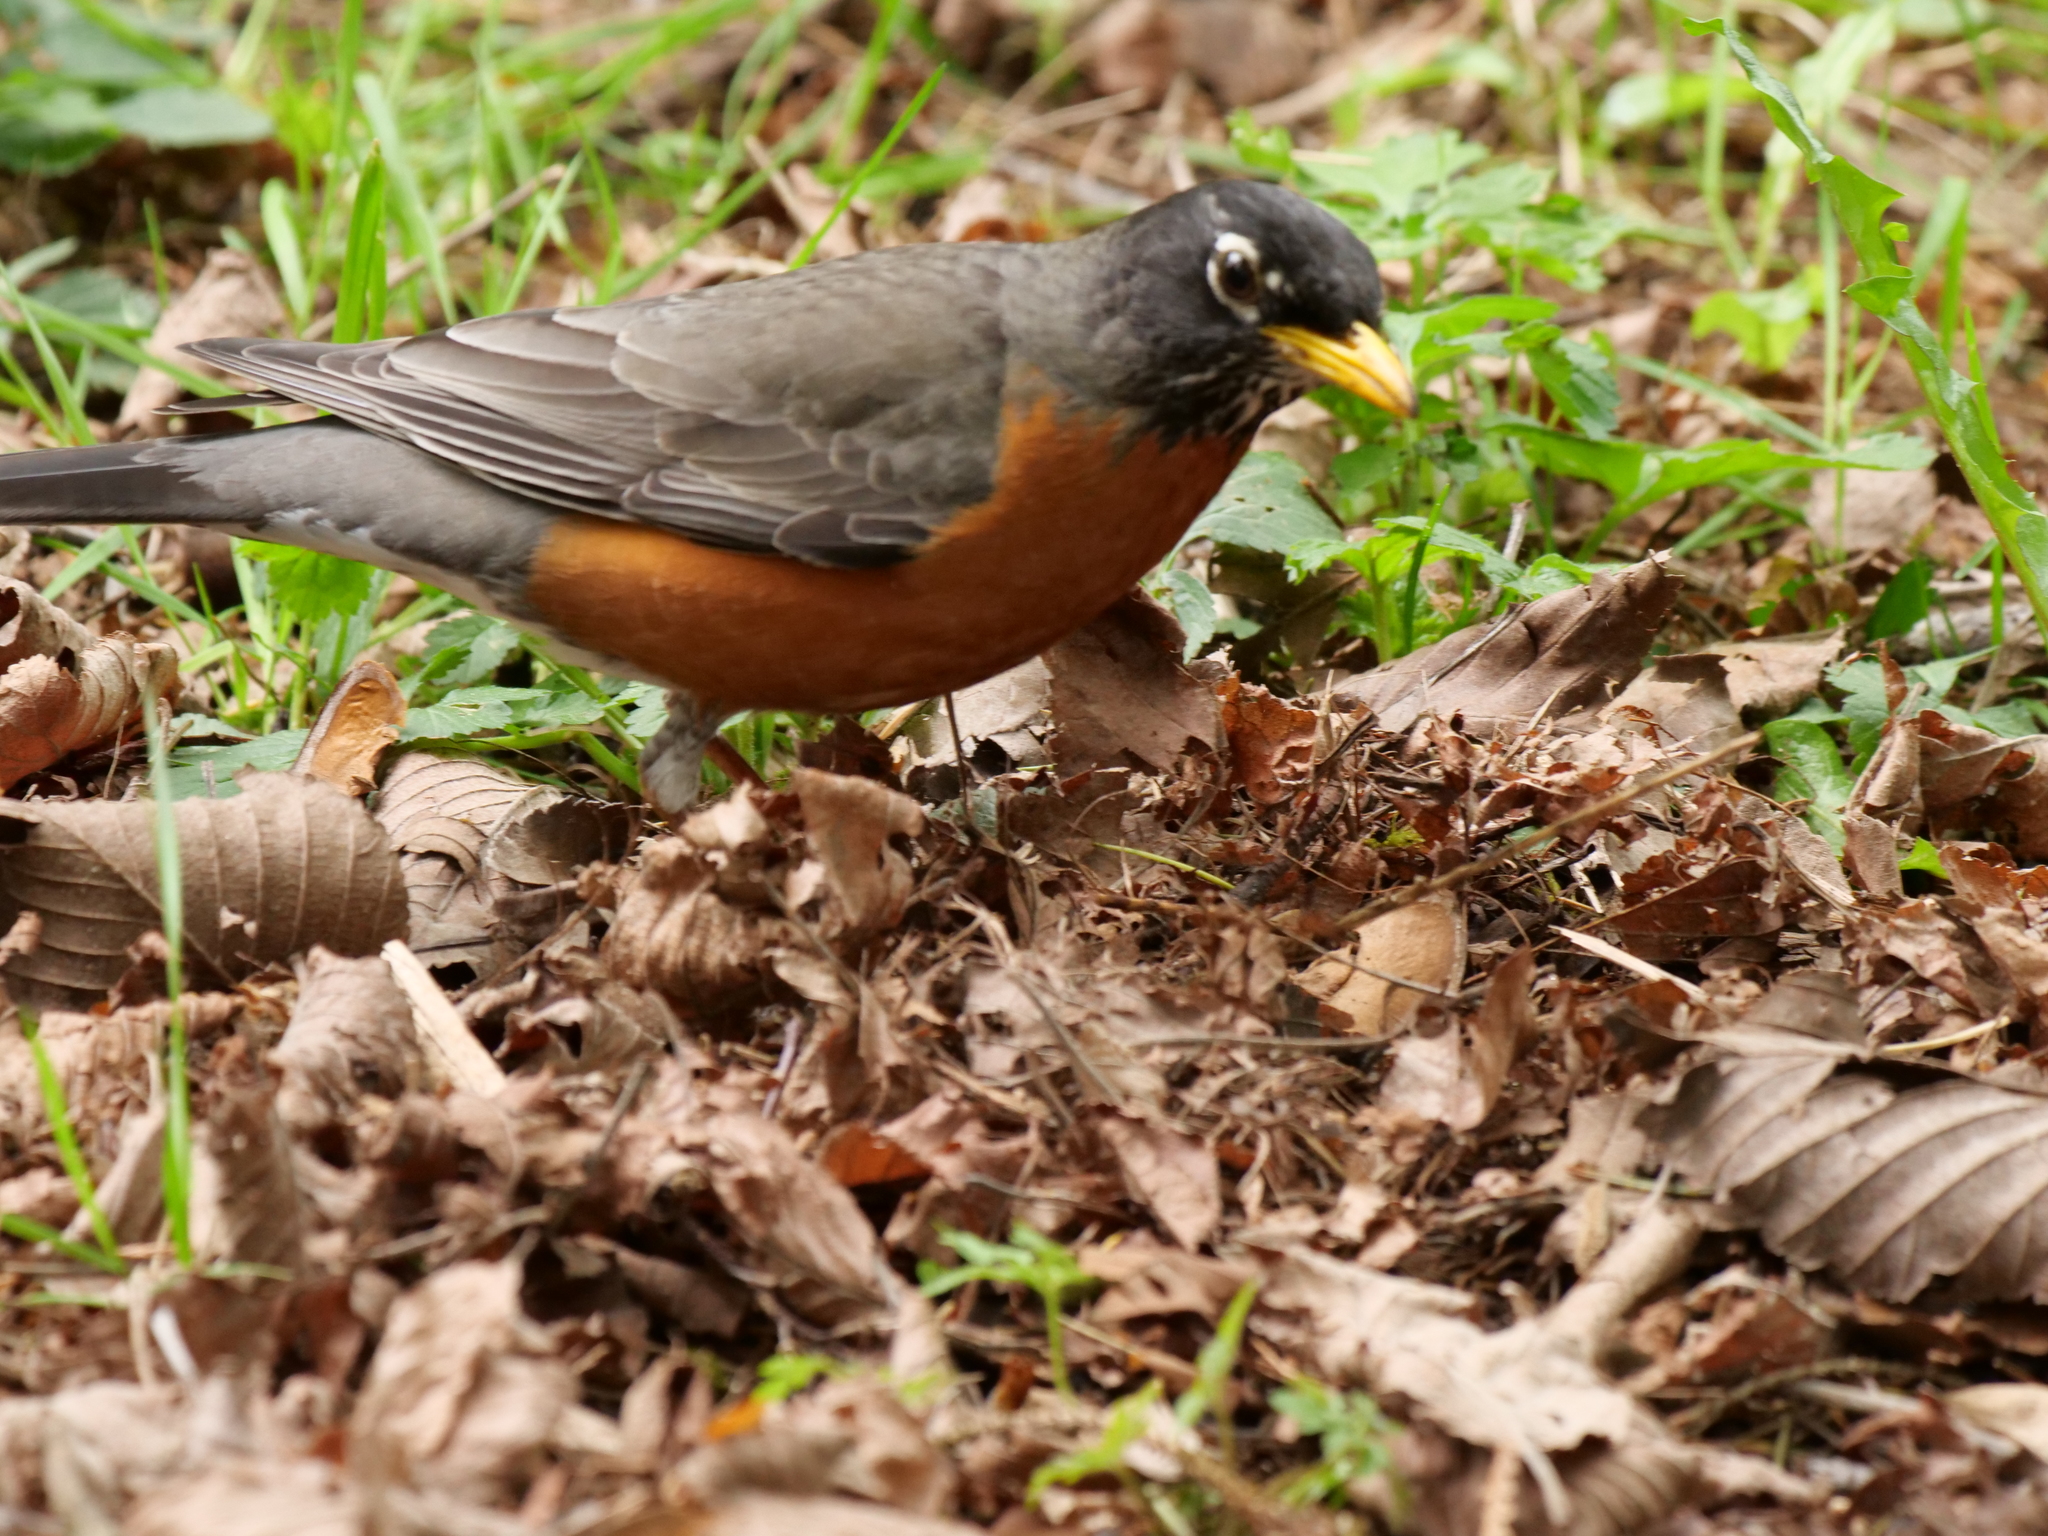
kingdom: Animalia
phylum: Chordata
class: Aves
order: Passeriformes
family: Turdidae
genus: Turdus
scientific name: Turdus migratorius
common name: American robin
